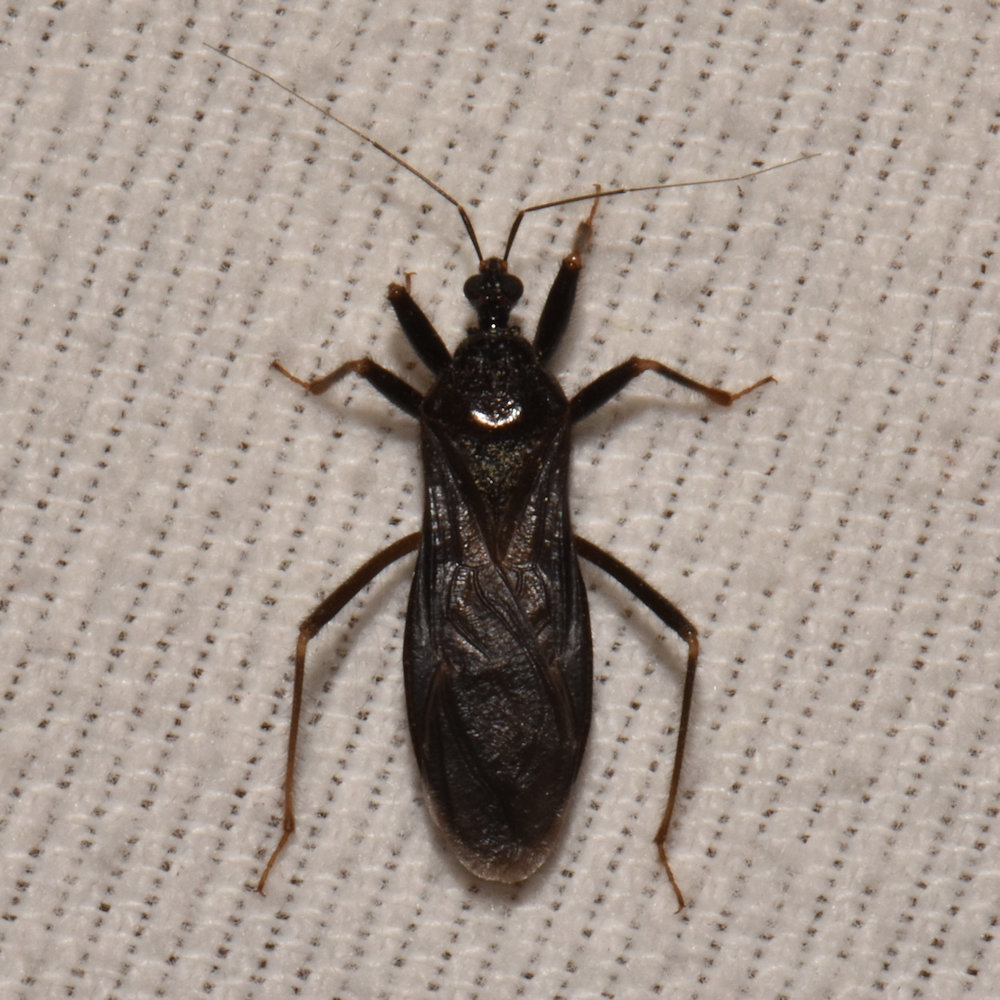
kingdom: Animalia
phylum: Arthropoda
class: Insecta
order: Hemiptera
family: Reduviidae
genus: Reduvius
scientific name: Reduvius personatus
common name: Masked hunter
